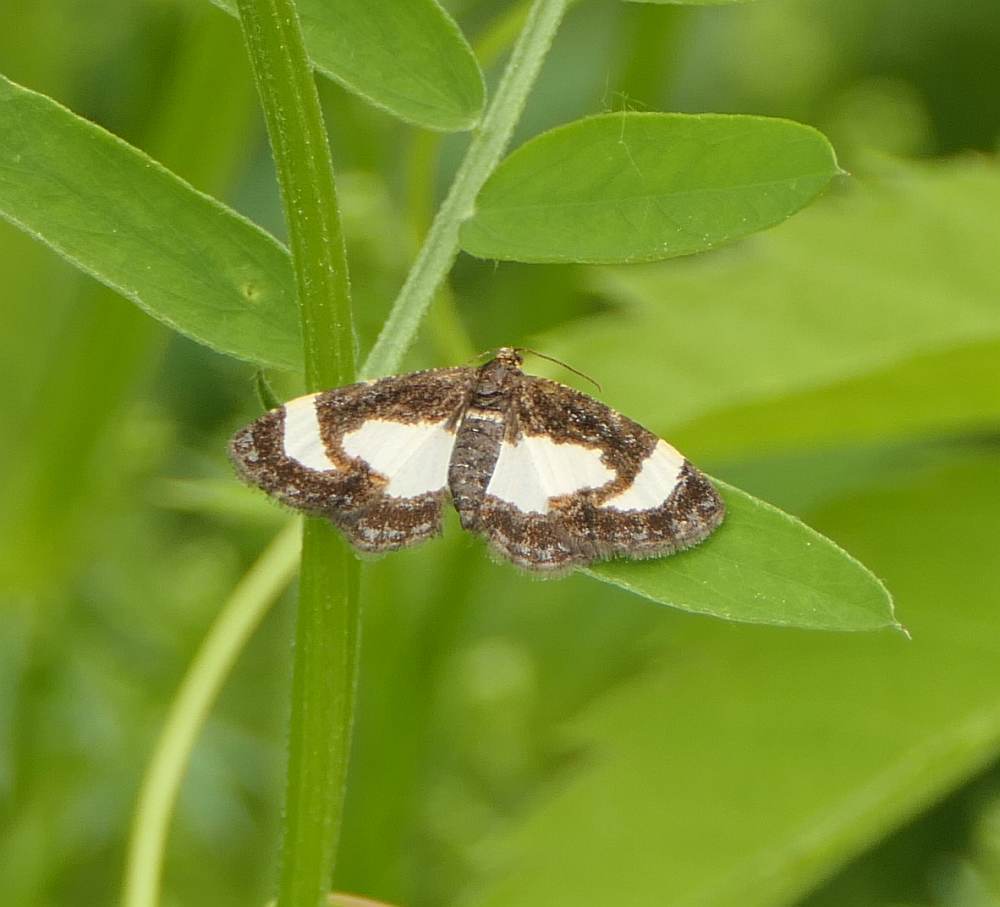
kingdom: Animalia
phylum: Arthropoda
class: Insecta
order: Lepidoptera
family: Geometridae
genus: Heliomata
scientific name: Heliomata cycladata
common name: Common spring moth
